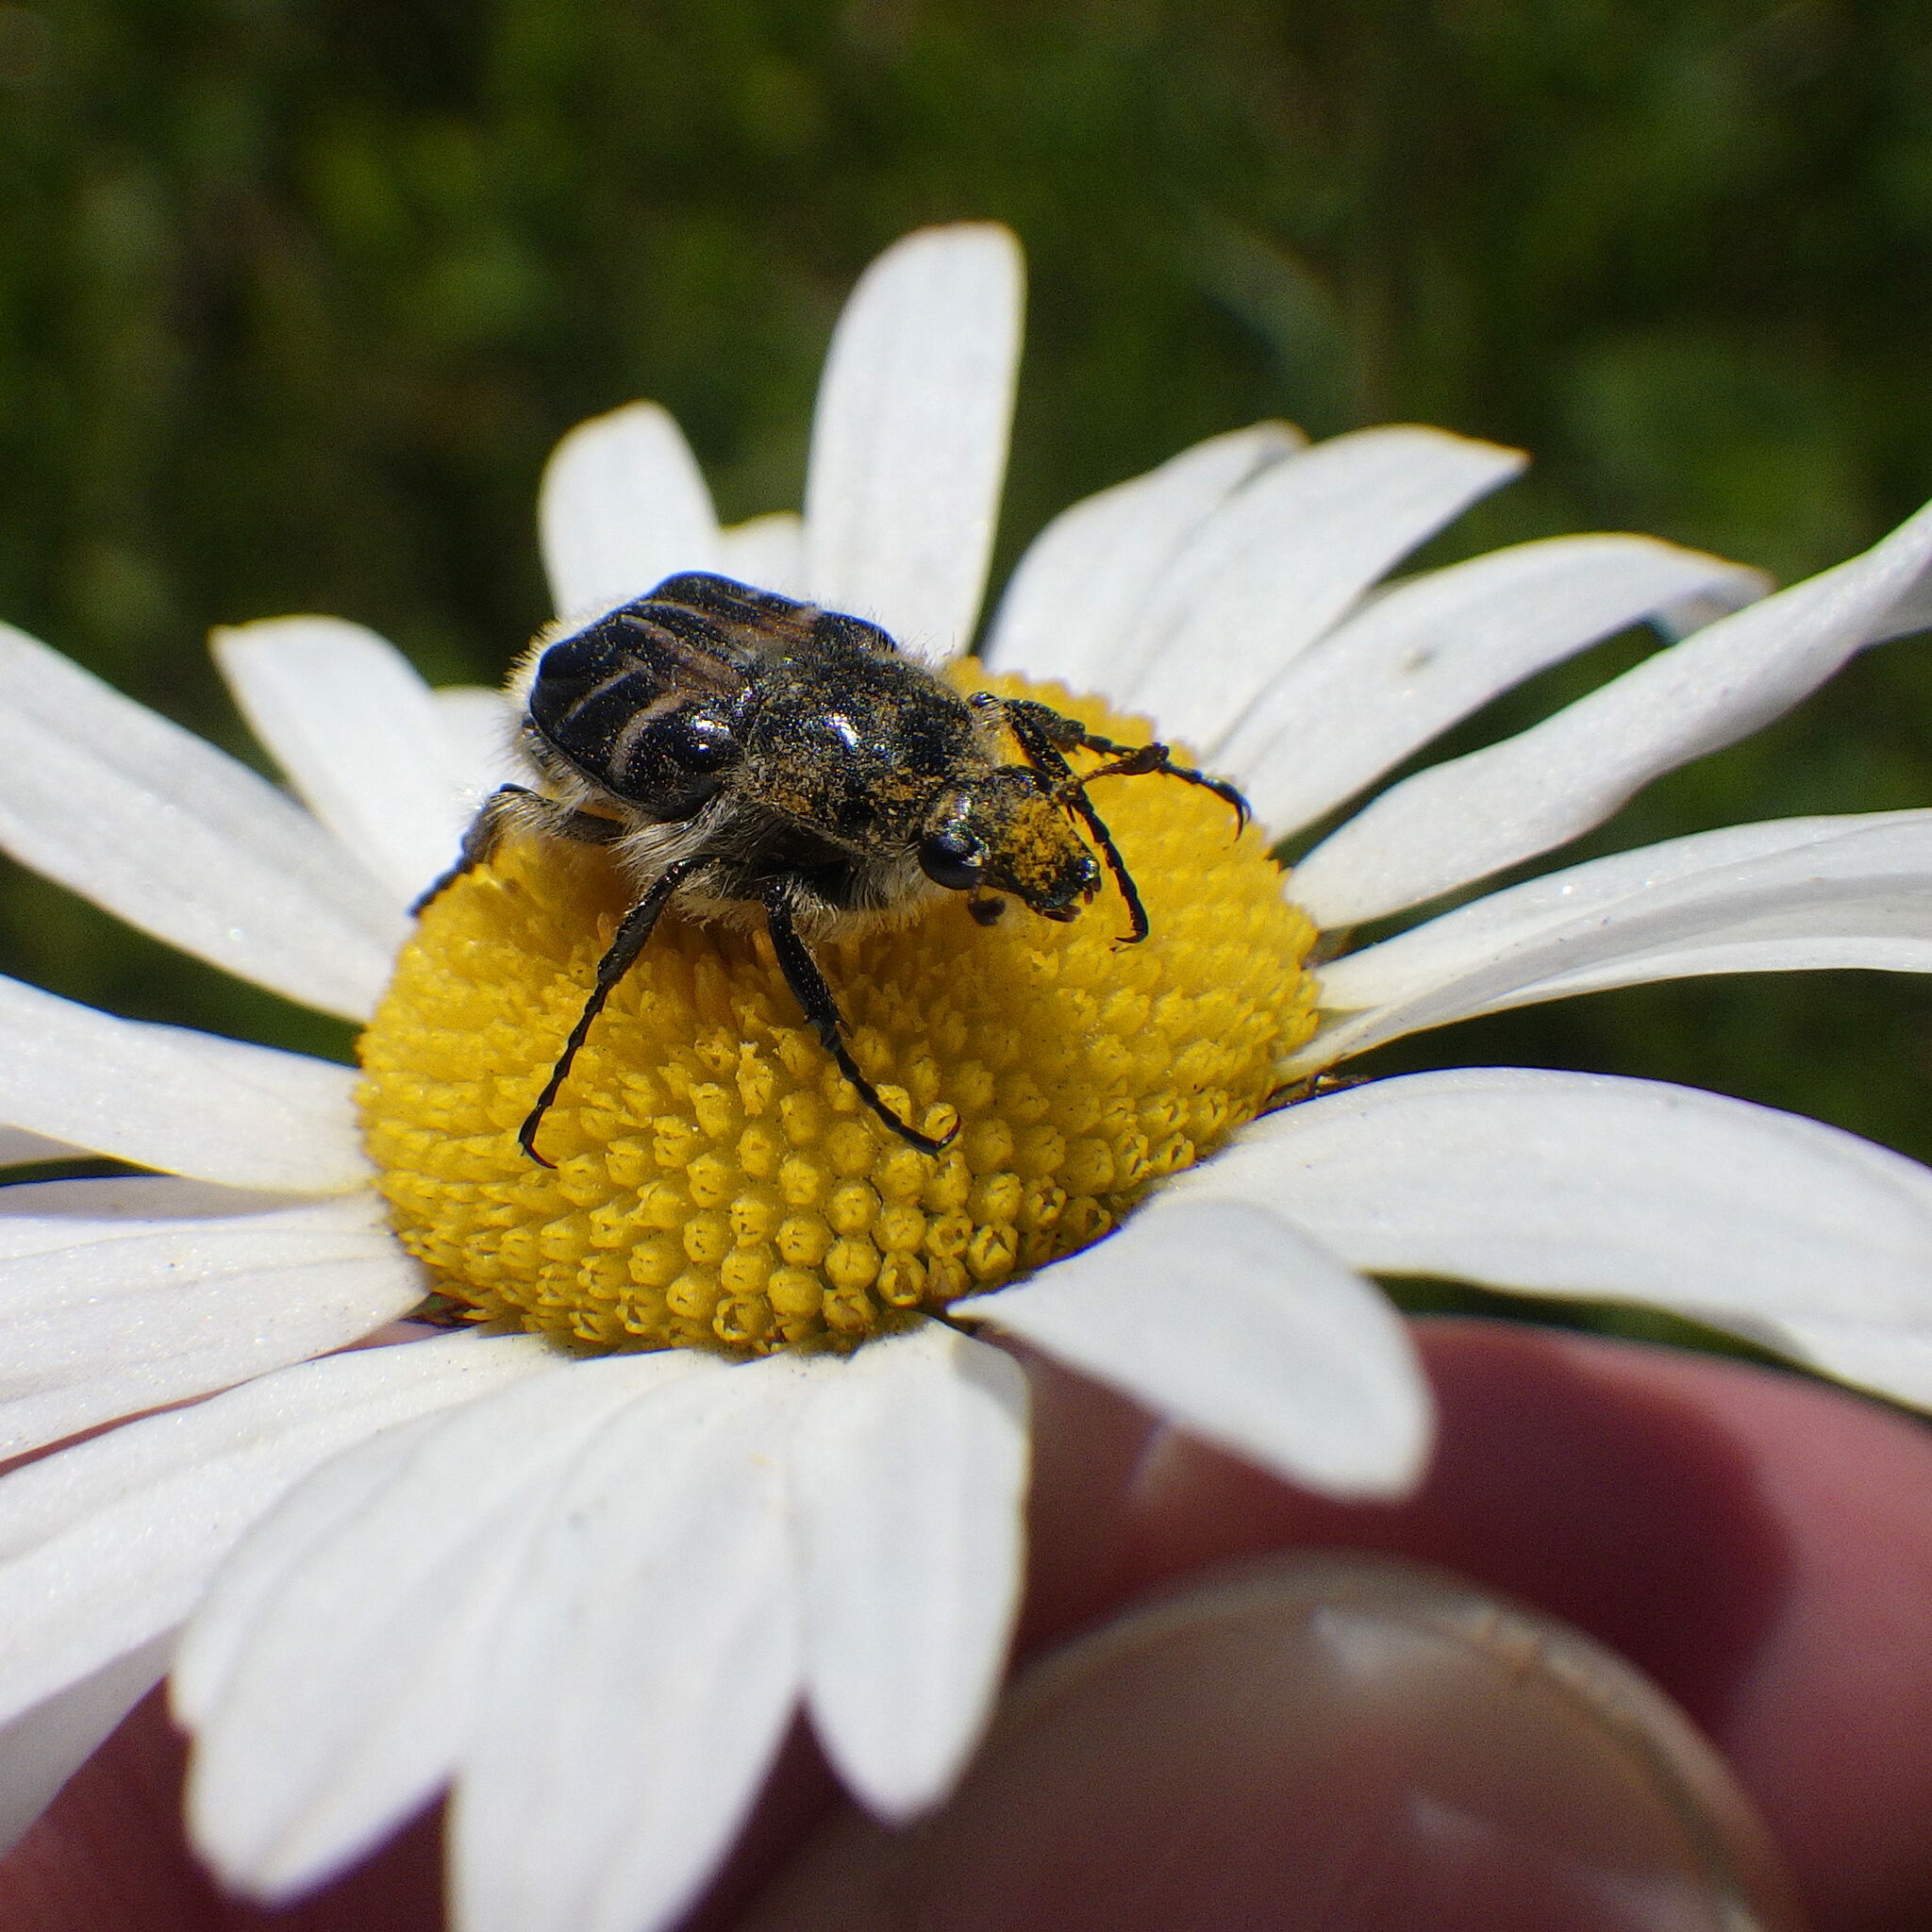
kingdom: Animalia
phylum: Arthropoda
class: Insecta
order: Coleoptera
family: Scarabaeidae
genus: Trichiotinus
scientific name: Trichiotinus assimilis
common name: Bee-mimic beetle
